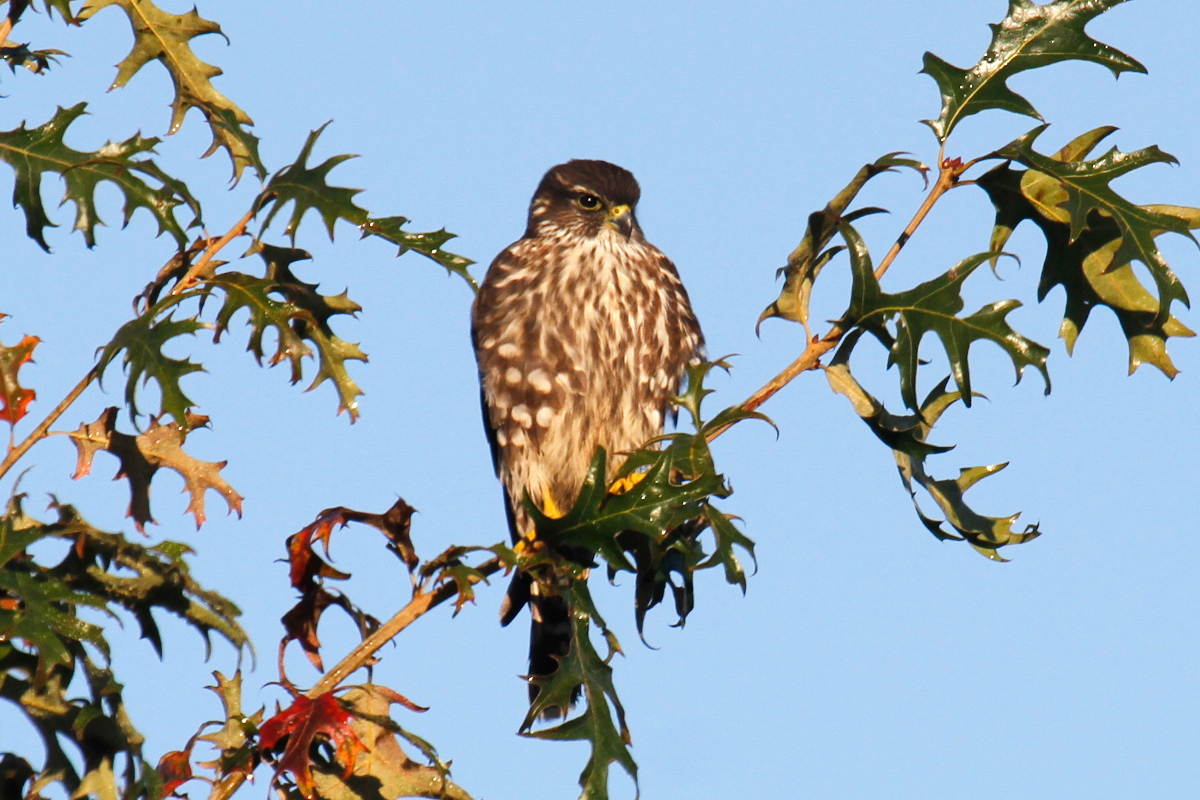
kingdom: Animalia
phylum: Chordata
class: Aves
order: Falconiformes
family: Falconidae
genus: Falco
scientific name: Falco columbarius
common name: Merlin
